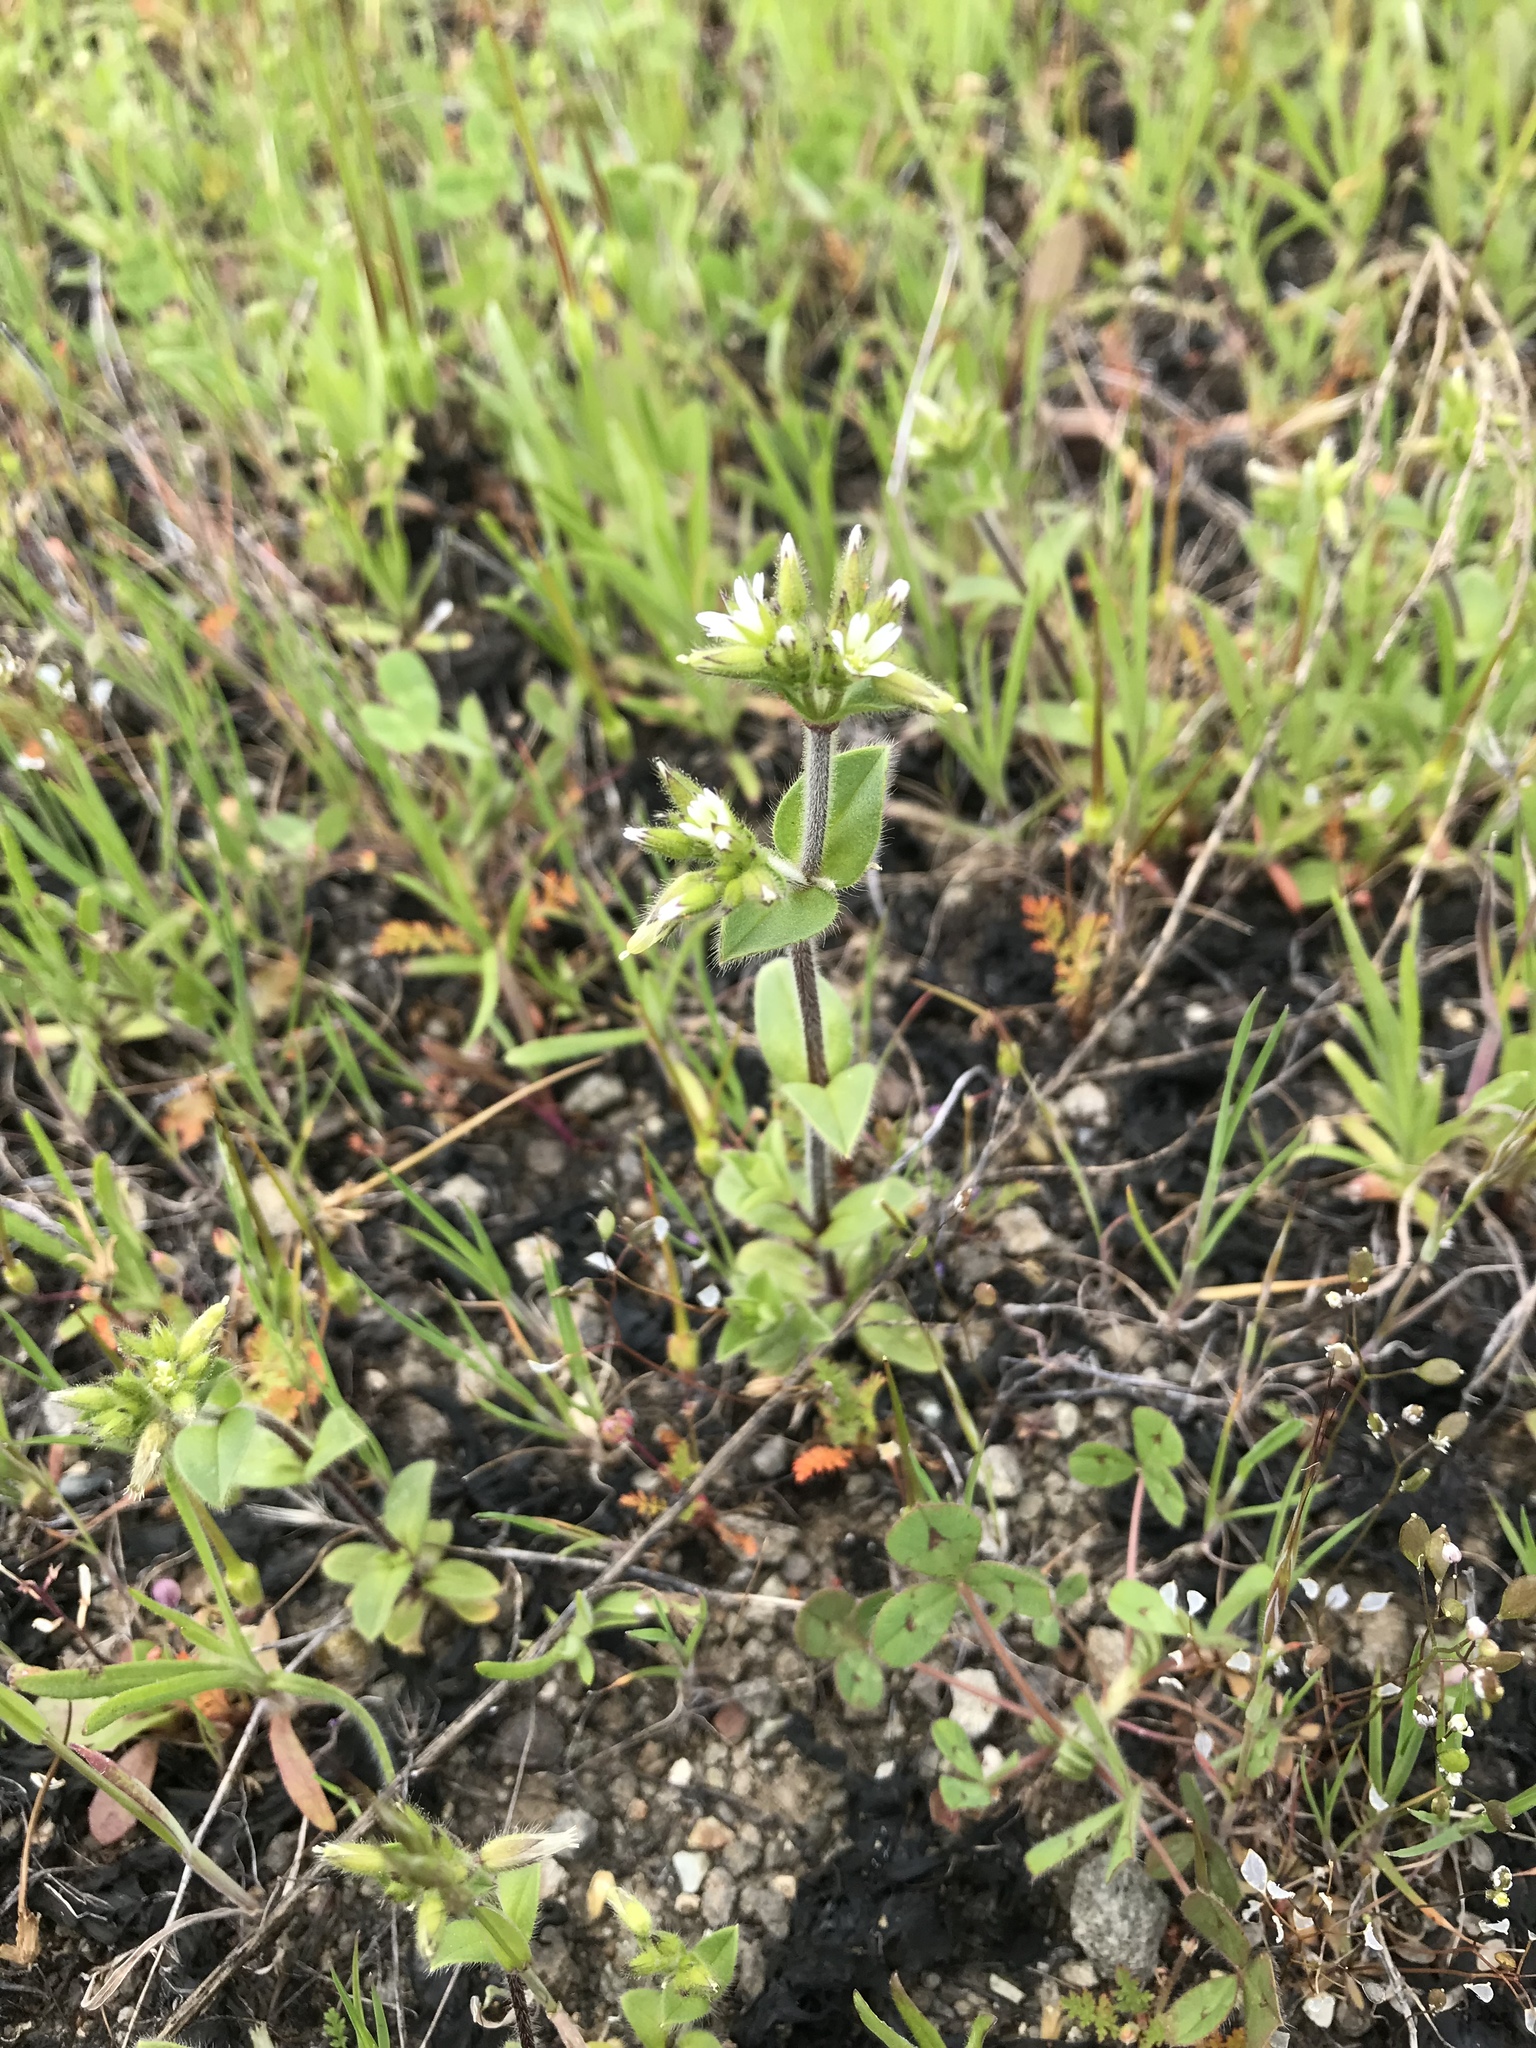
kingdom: Plantae
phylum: Tracheophyta
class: Magnoliopsida
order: Caryophyllales
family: Caryophyllaceae
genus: Cerastium
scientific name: Cerastium glomeratum
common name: Sticky chickweed
